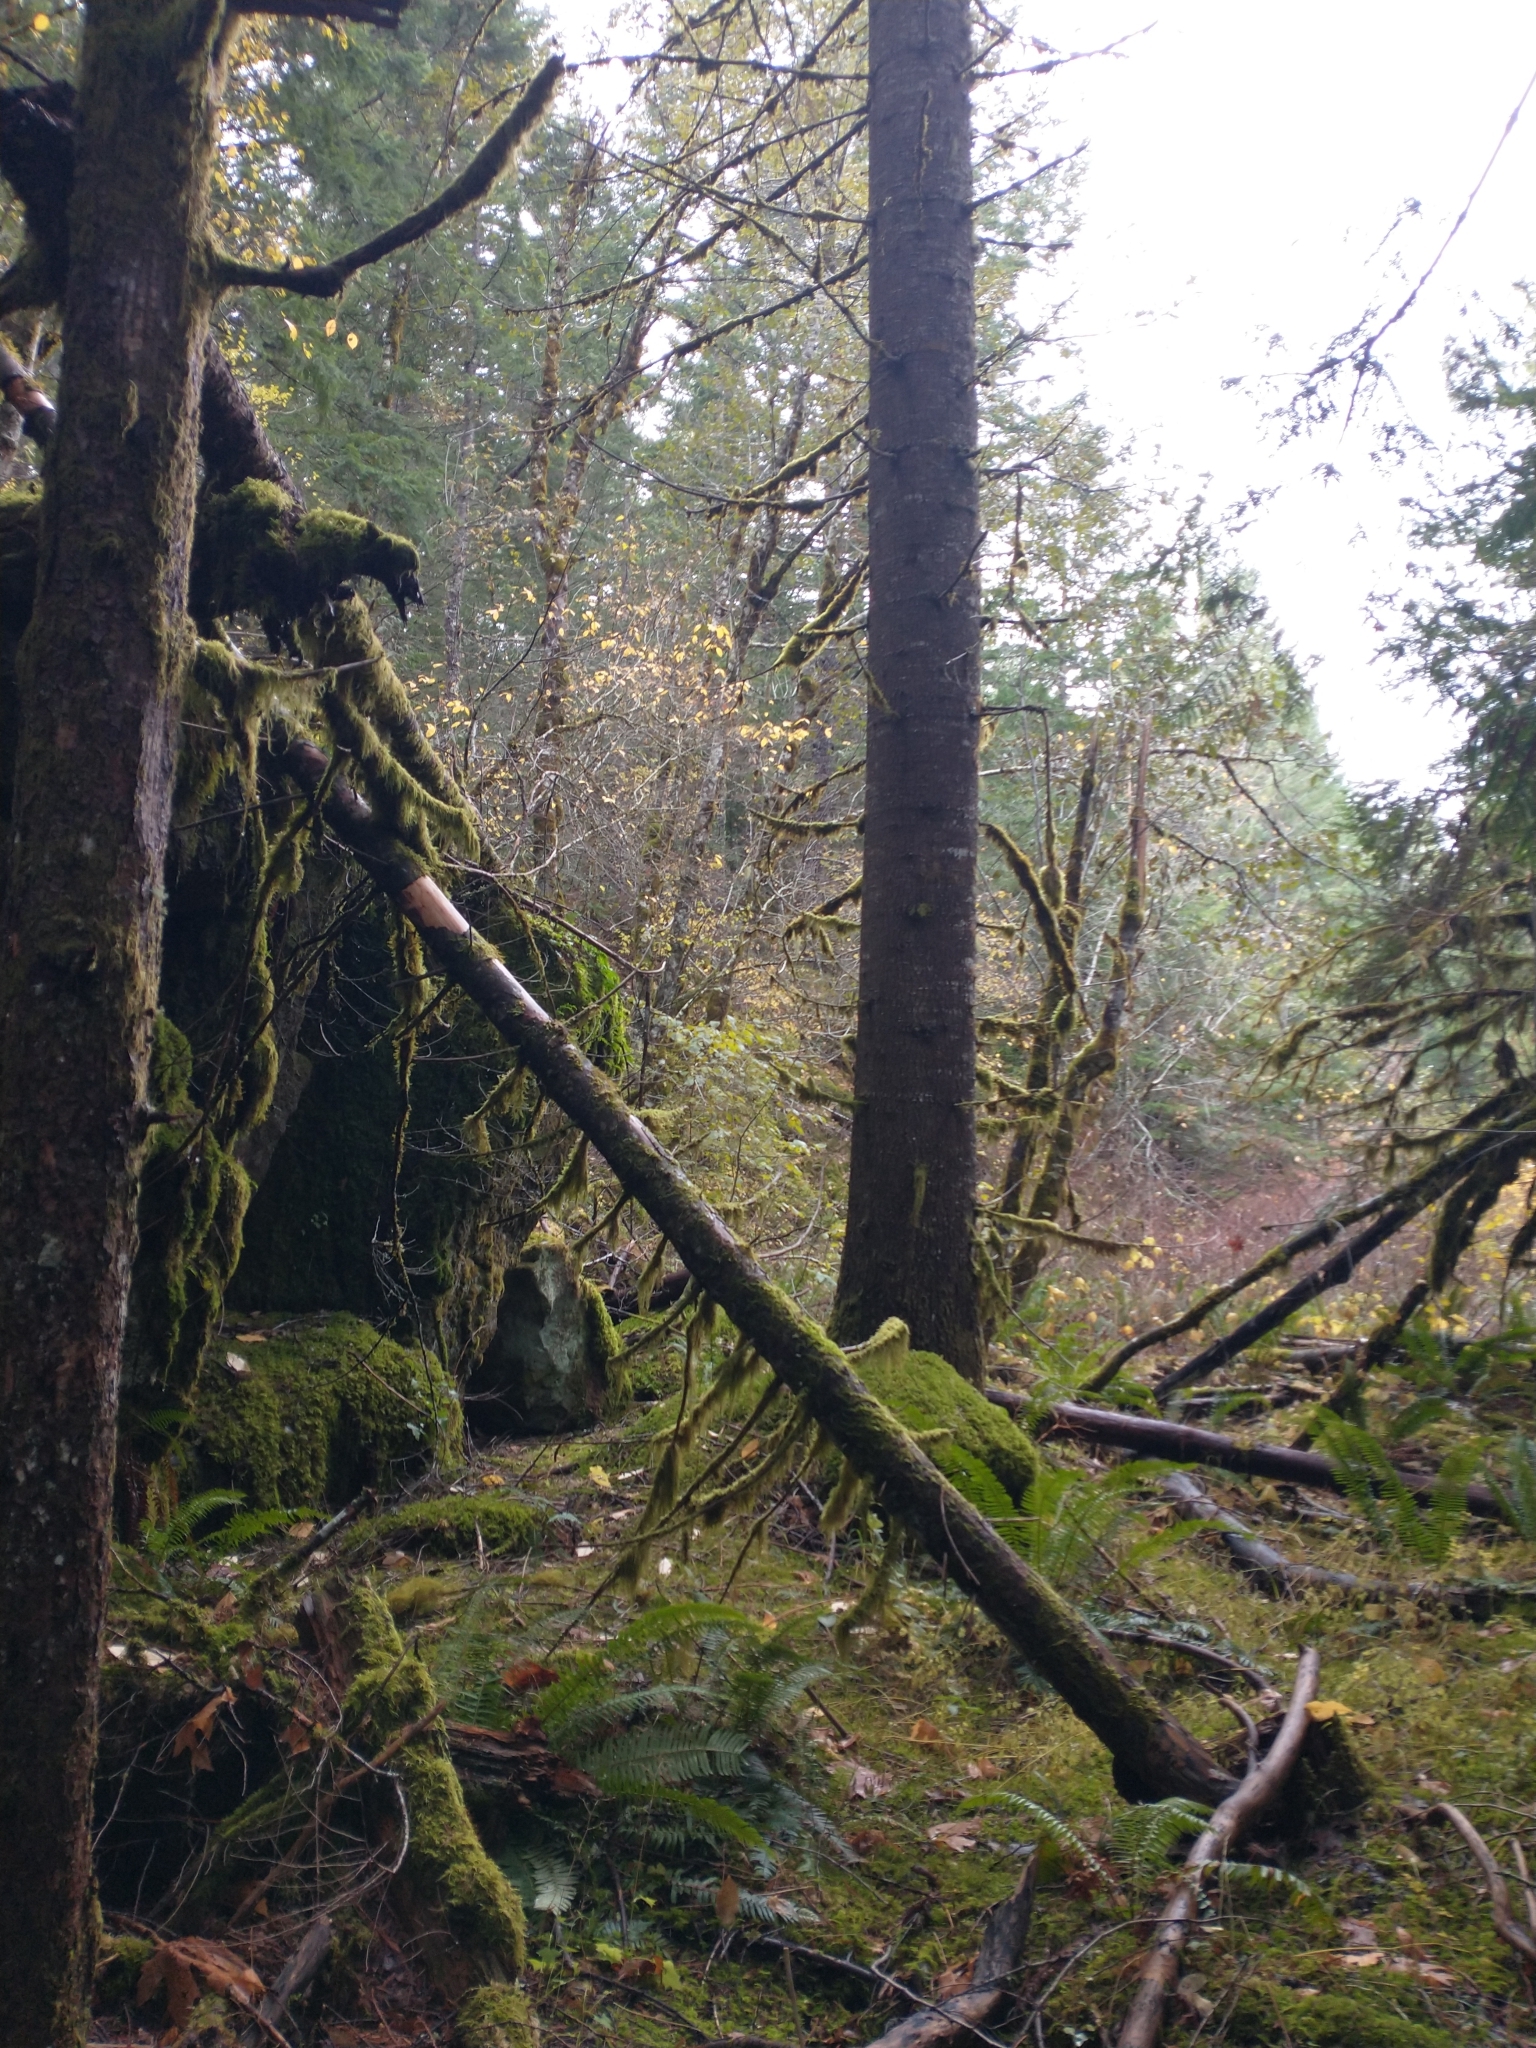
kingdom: Plantae
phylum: Tracheophyta
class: Pinopsida
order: Pinales
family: Pinaceae
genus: Abies
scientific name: Abies grandis
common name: Giant fir
